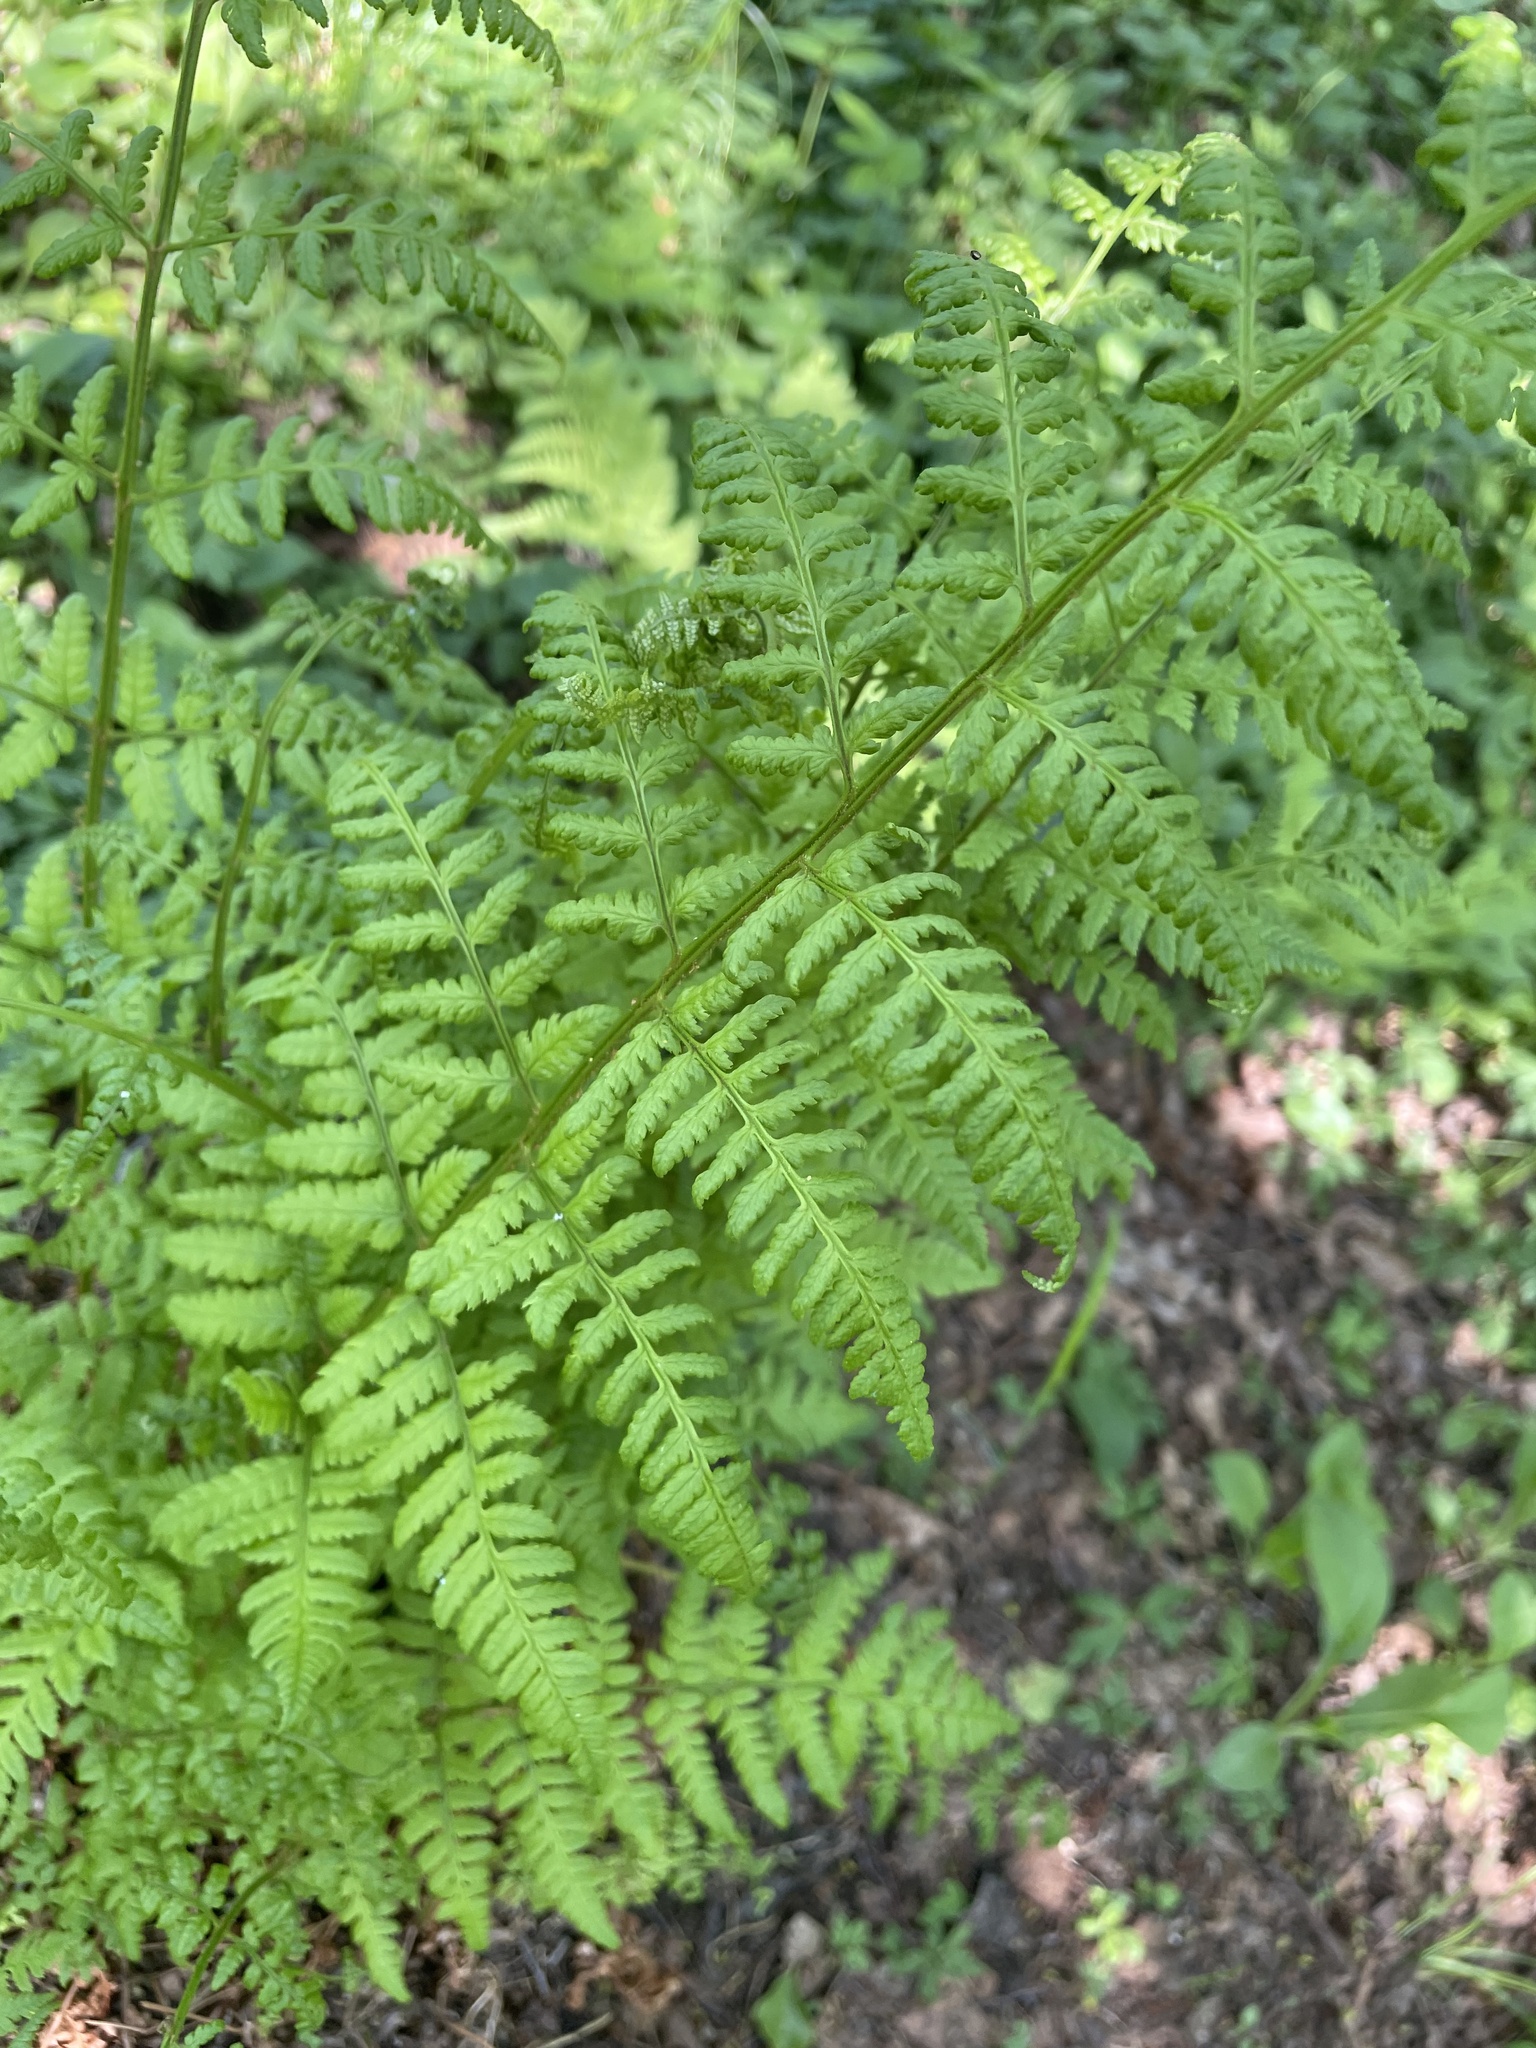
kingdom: Plantae
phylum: Tracheophyta
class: Polypodiopsida
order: Polypodiales
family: Dryopteridaceae
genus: Dryopteris
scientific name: Dryopteris carthusiana
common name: Narrow buckler-fern
